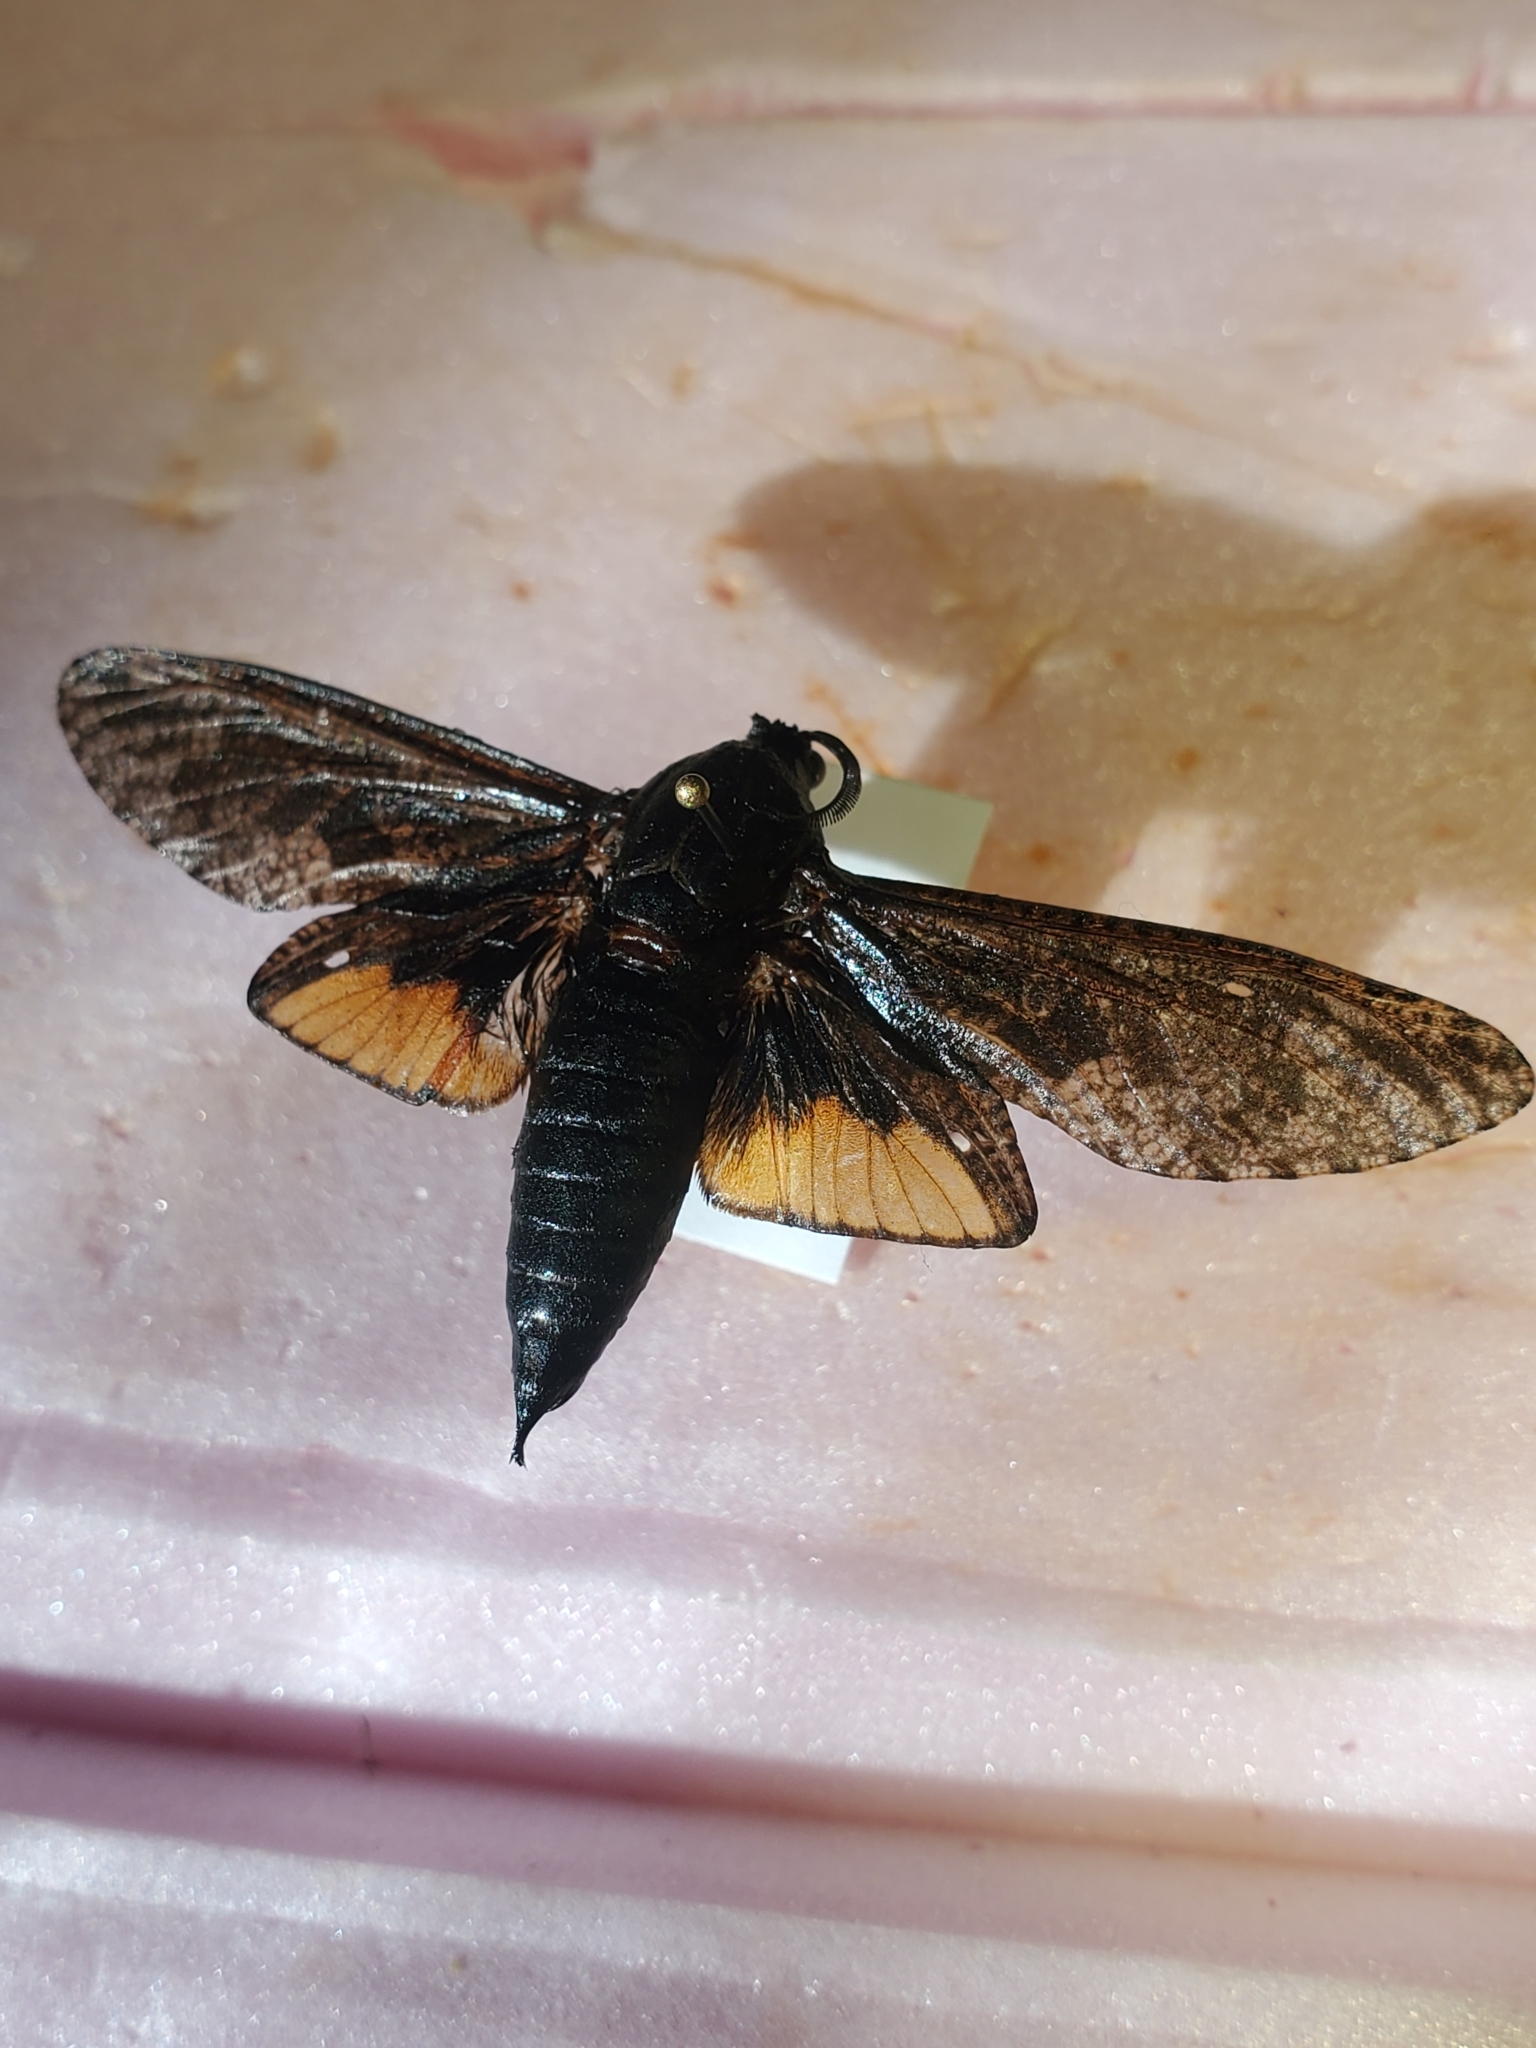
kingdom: Animalia
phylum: Arthropoda
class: Insecta
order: Lepidoptera
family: Cossidae
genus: Prionoxystus
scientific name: Prionoxystus robiniae
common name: Carpenterworm
